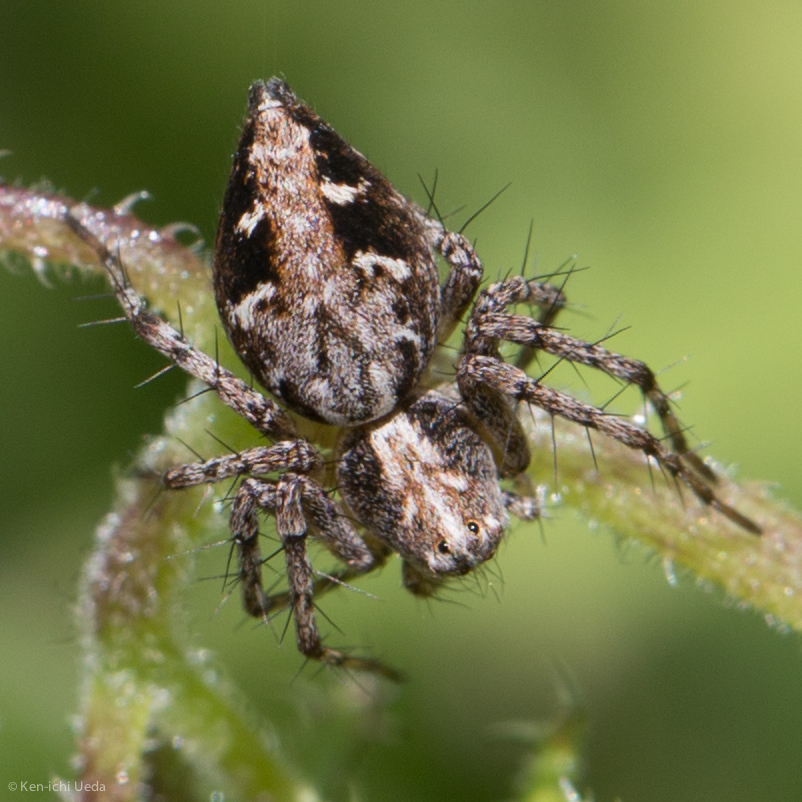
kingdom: Animalia
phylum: Arthropoda
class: Arachnida
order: Araneae
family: Oxyopidae
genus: Oxyopes
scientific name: Oxyopes scalaris
